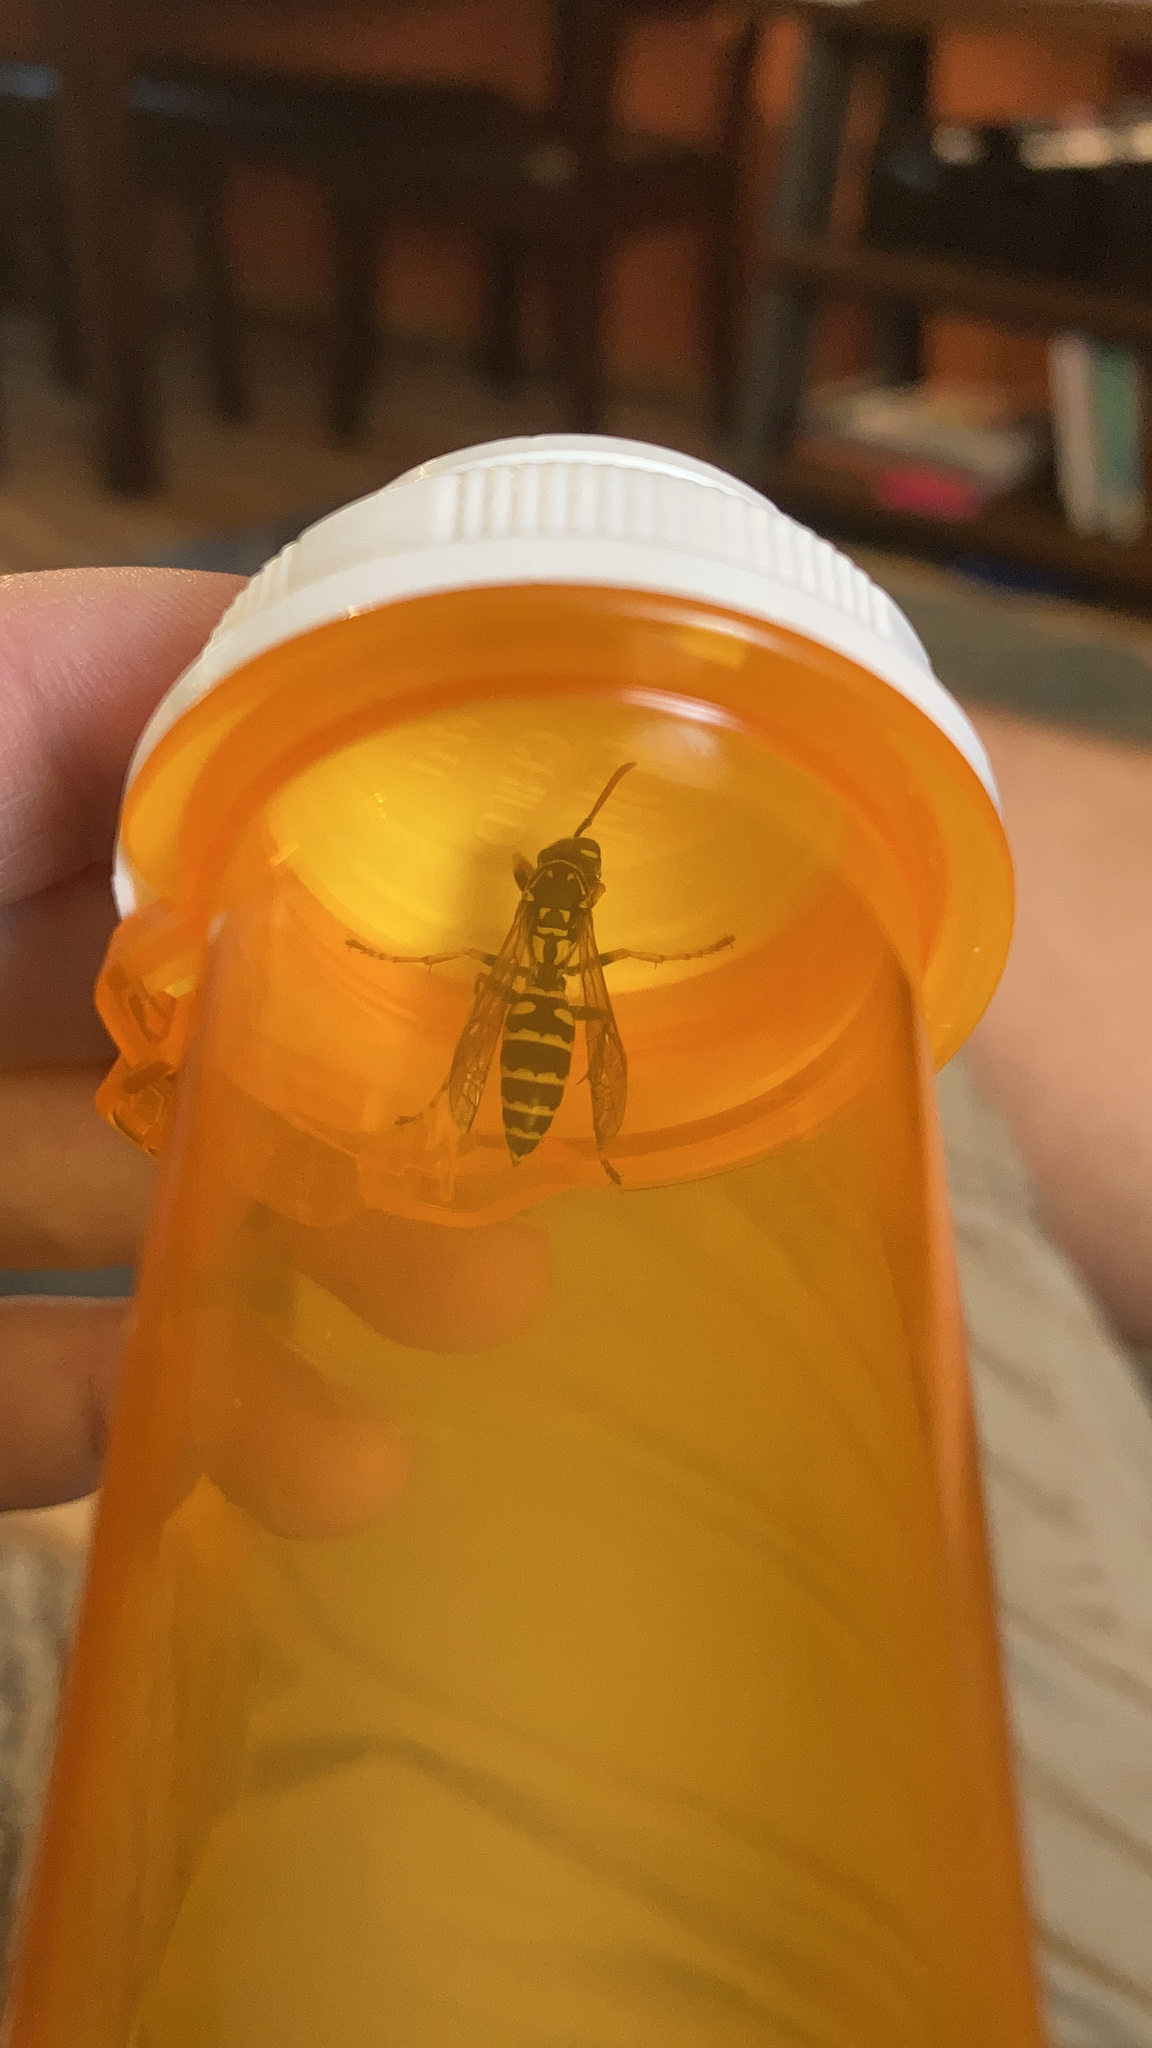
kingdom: Animalia
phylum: Arthropoda
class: Insecta
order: Hymenoptera
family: Eumenidae
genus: Polistes
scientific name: Polistes dominula
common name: Paper wasp
